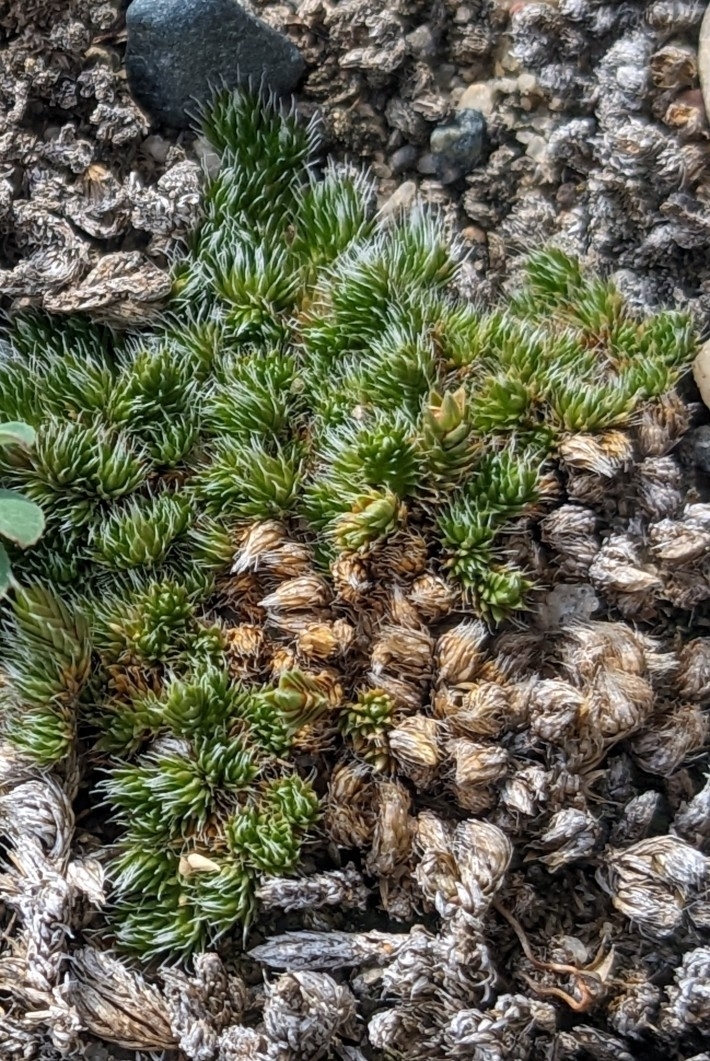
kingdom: Plantae
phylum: Tracheophyta
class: Lycopodiopsida
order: Selaginellales
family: Selaginellaceae
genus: Selaginella
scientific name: Selaginella densa
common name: Mountain spike-moss
